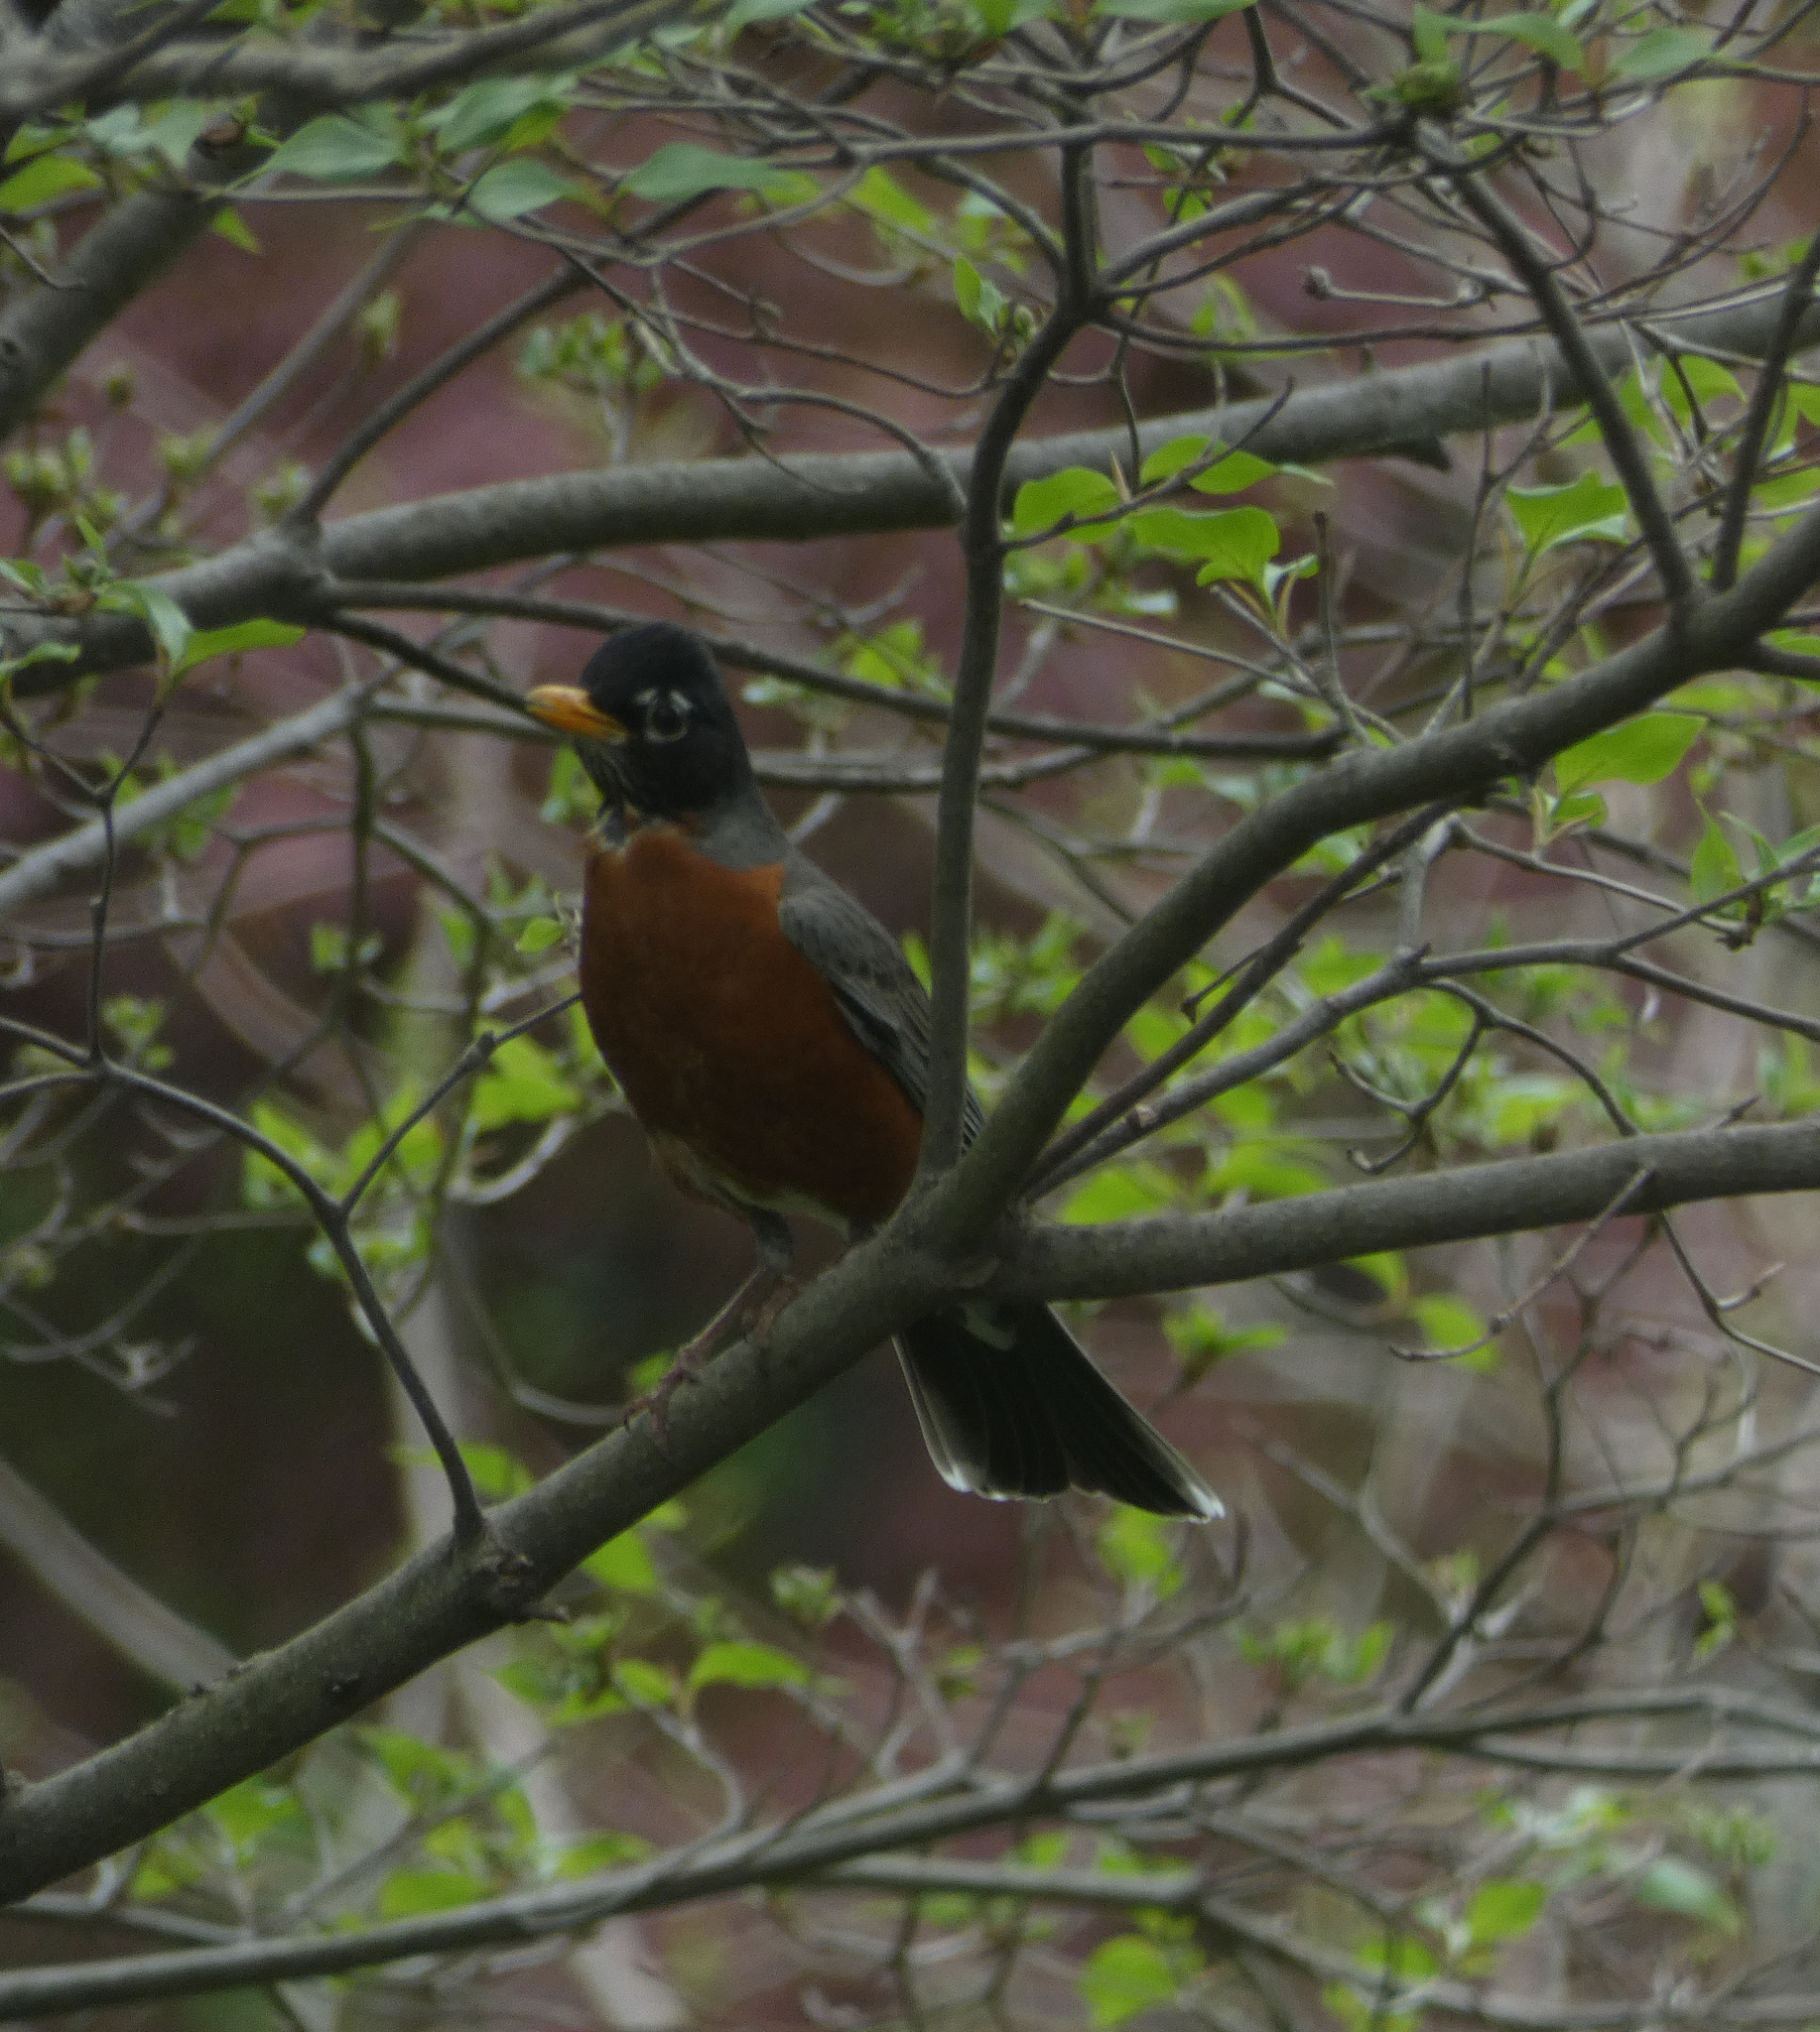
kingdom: Animalia
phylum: Chordata
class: Aves
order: Passeriformes
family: Turdidae
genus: Turdus
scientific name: Turdus migratorius
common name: American robin
